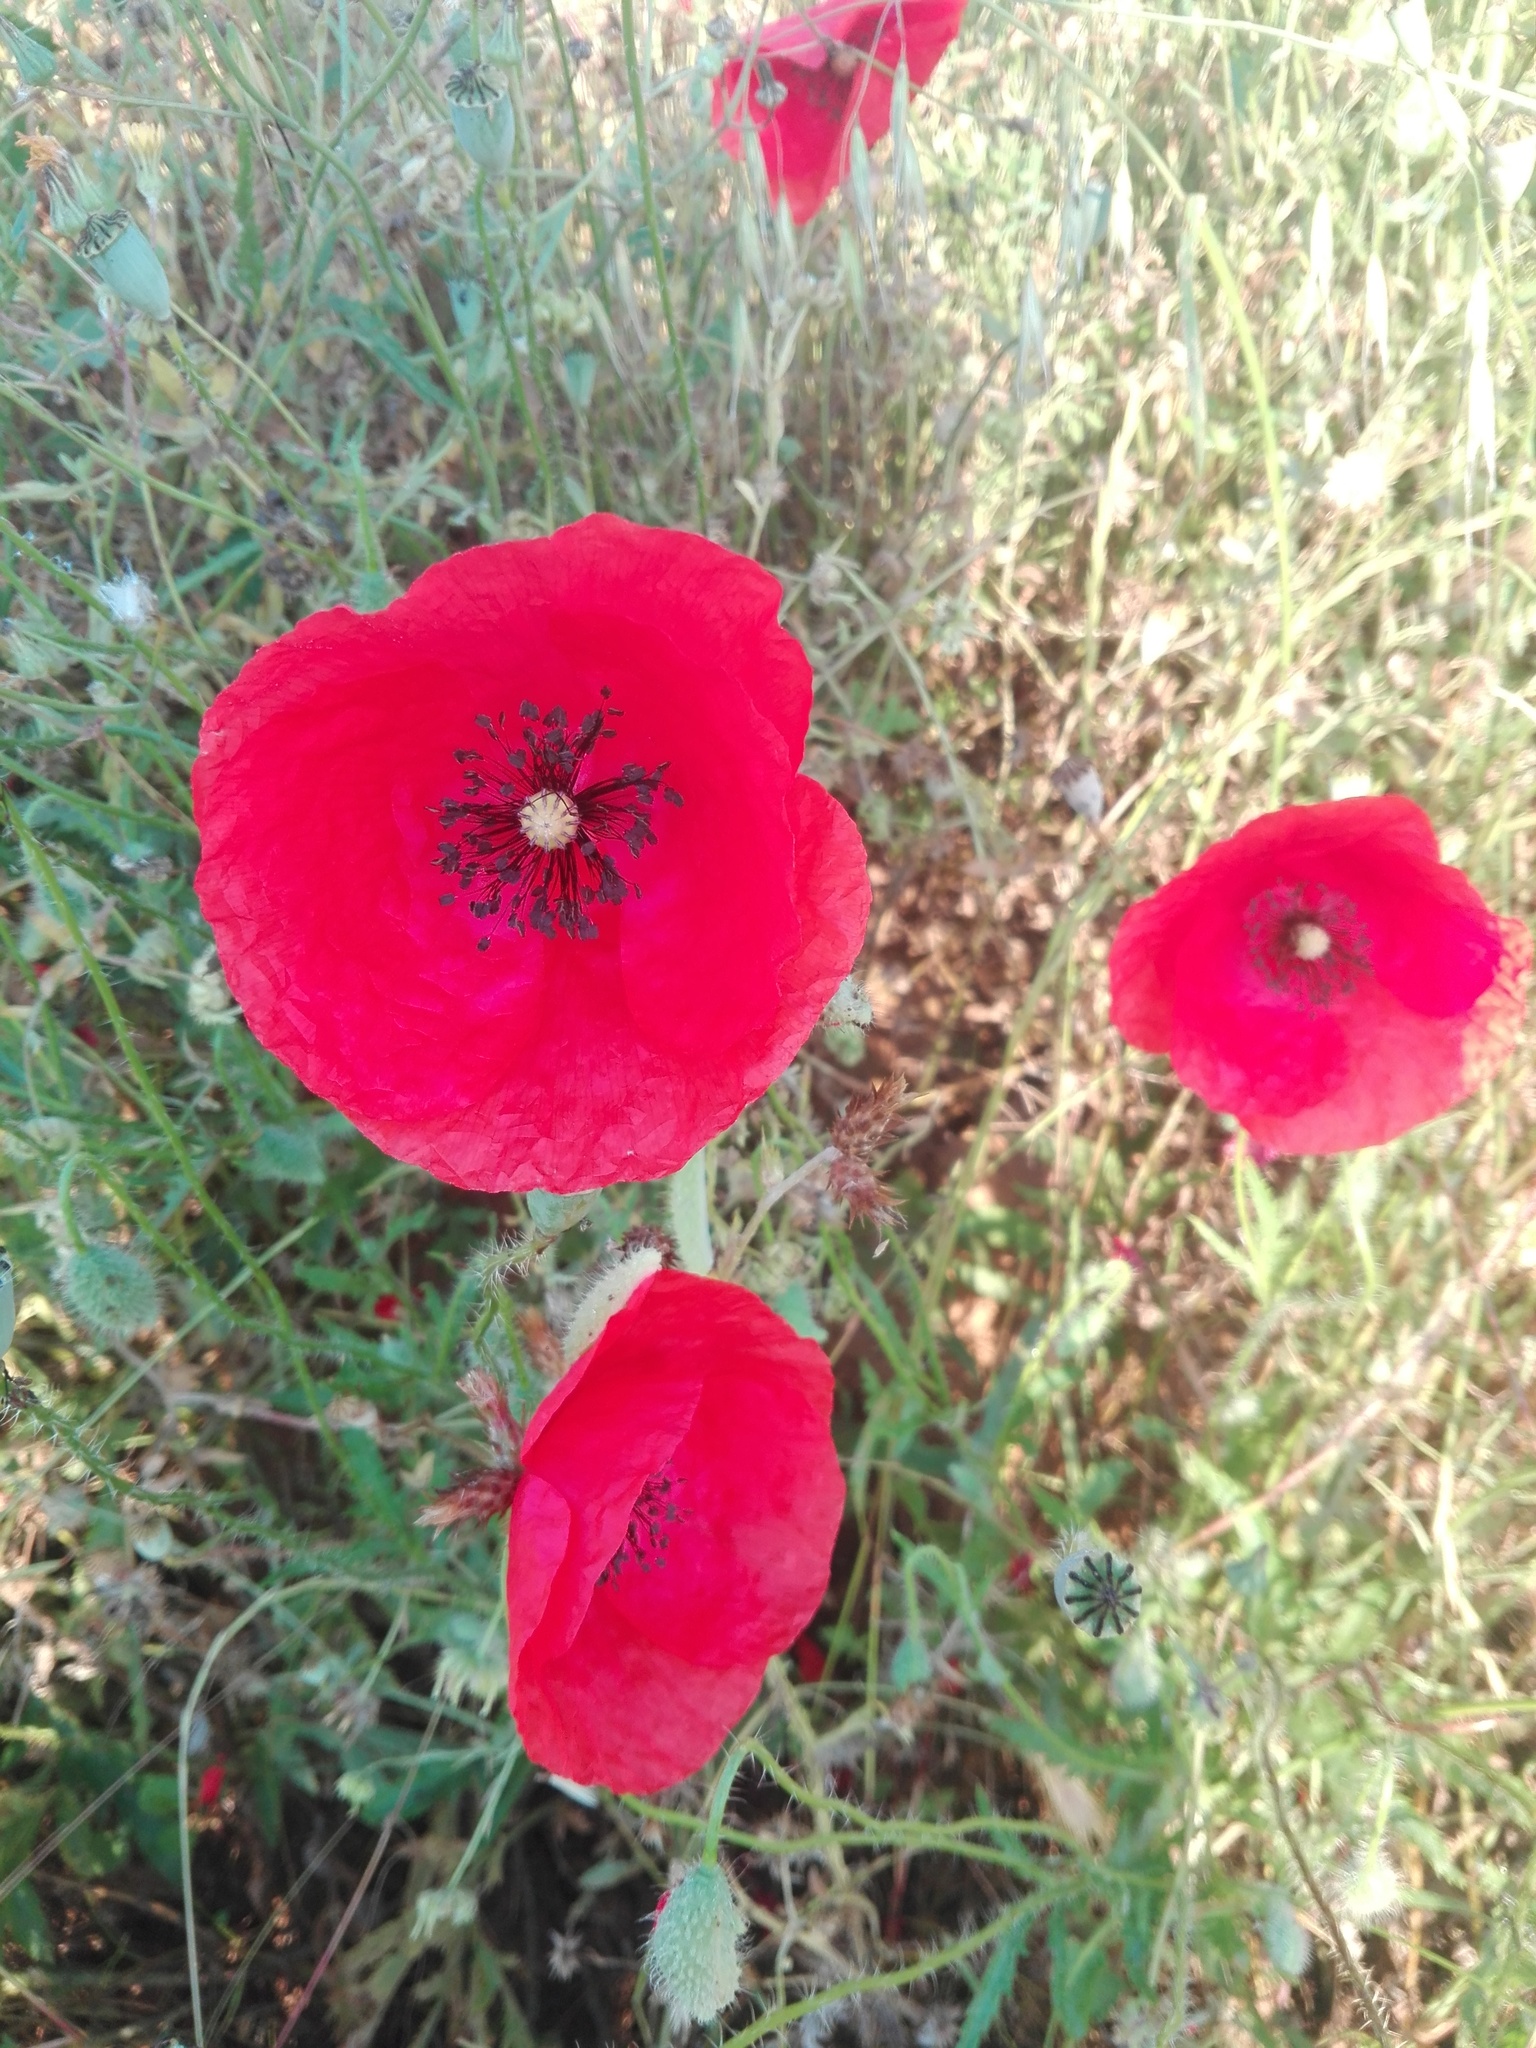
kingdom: Plantae
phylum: Tracheophyta
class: Magnoliopsida
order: Ranunculales
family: Papaveraceae
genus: Papaver
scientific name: Papaver rhoeas
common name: Corn poppy
